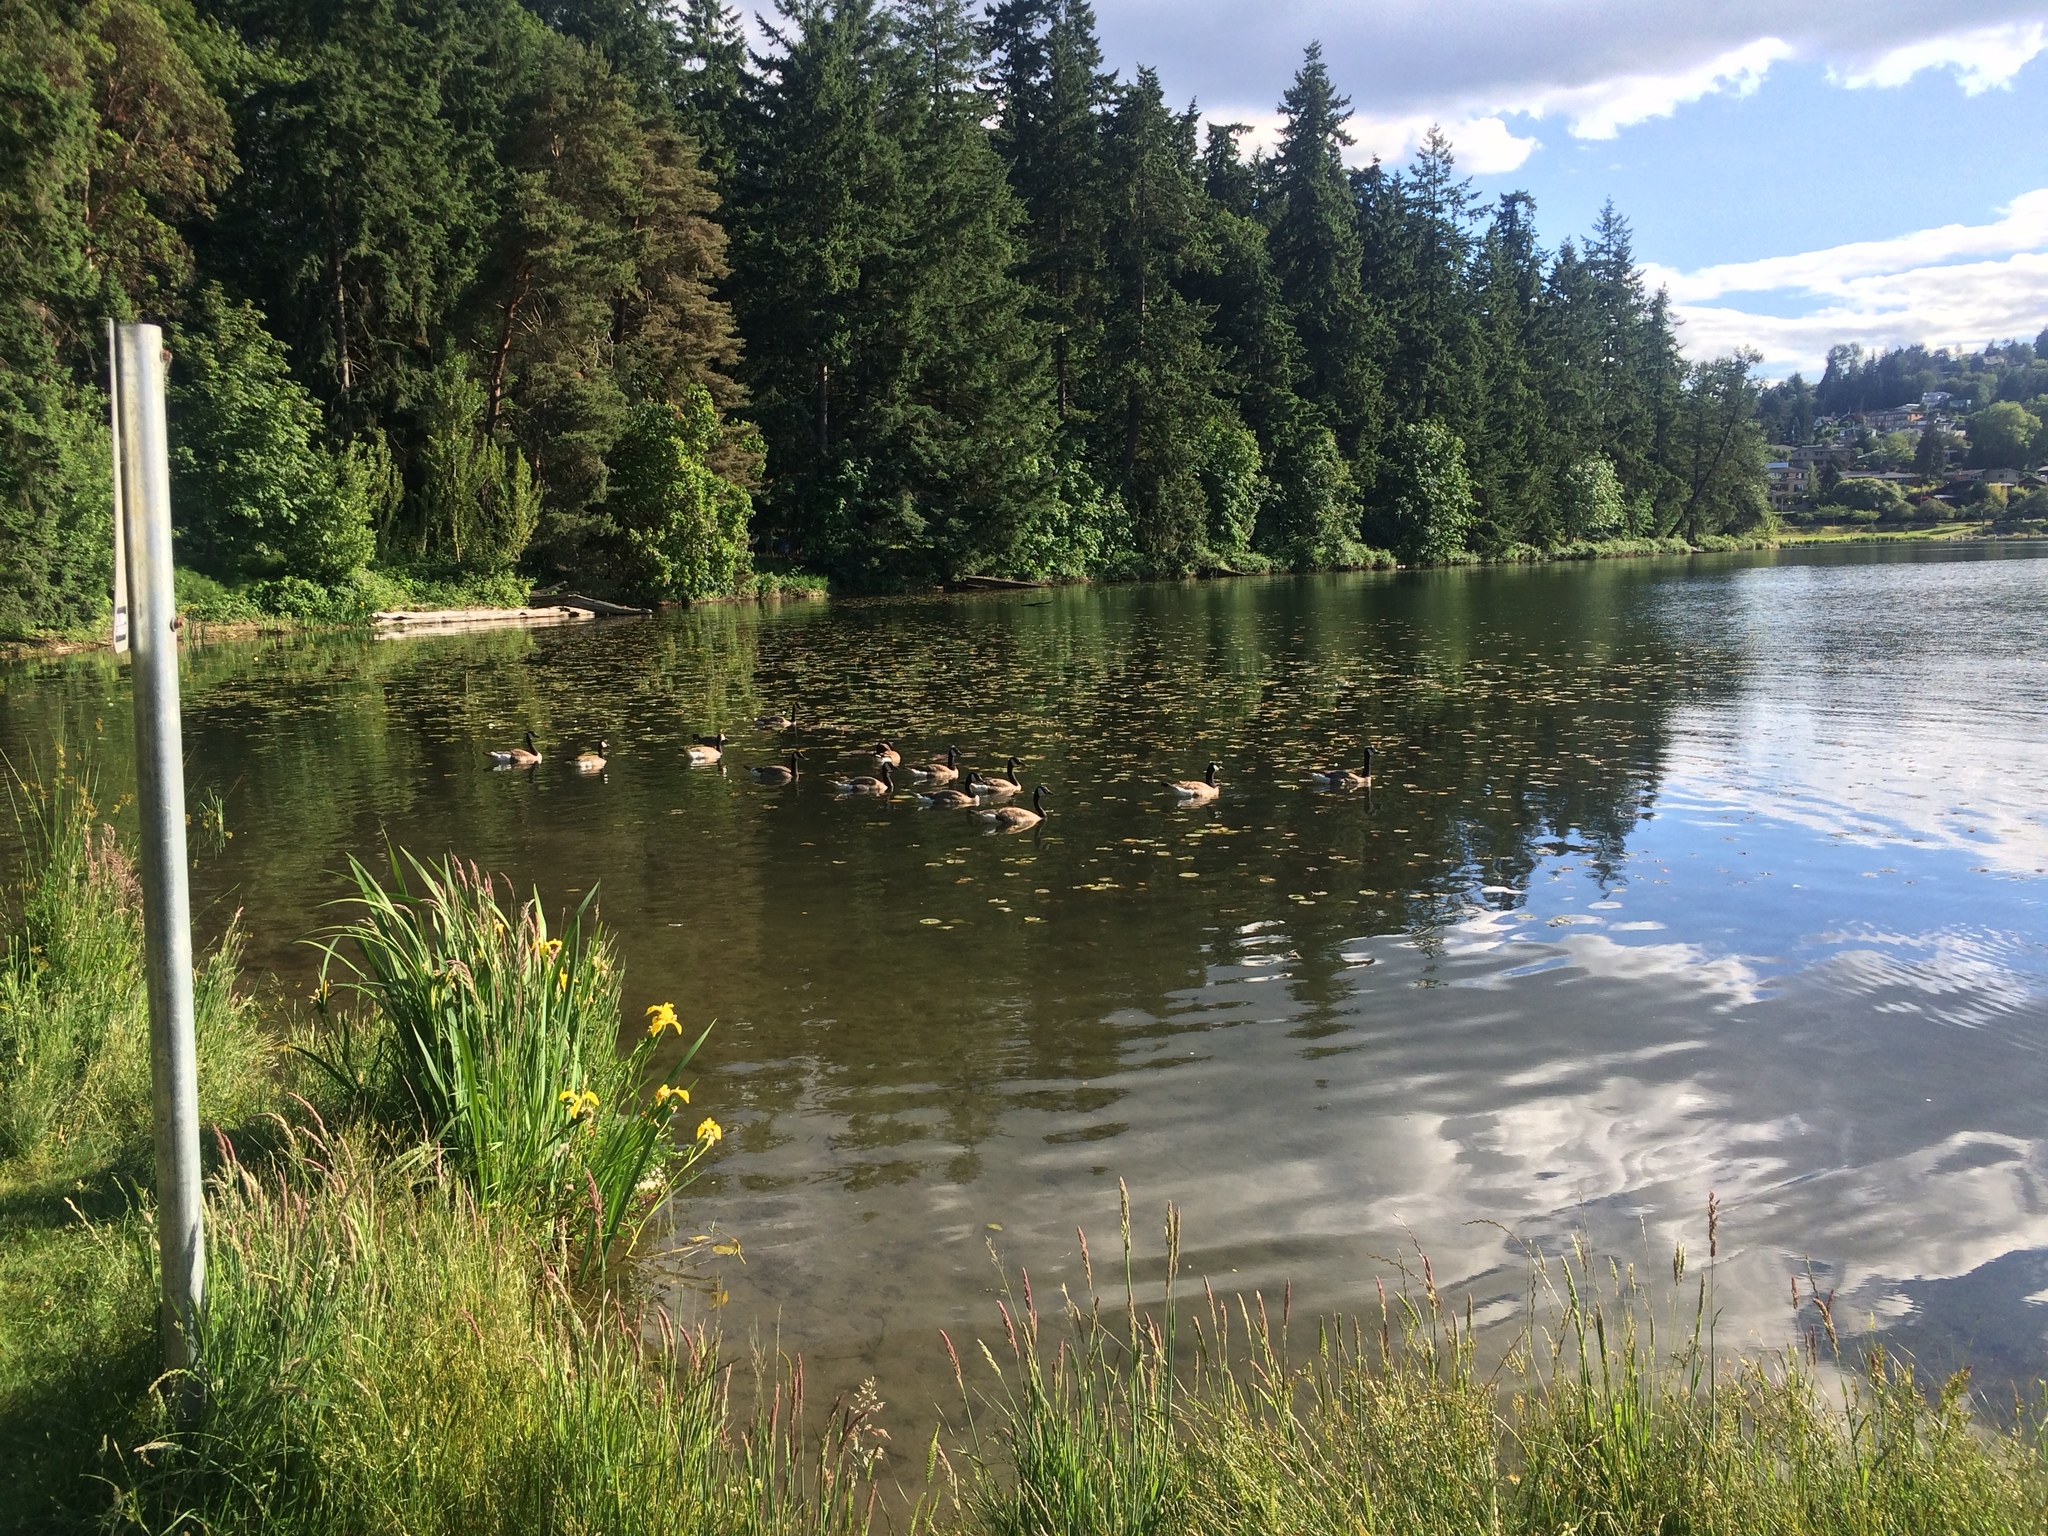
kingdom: Animalia
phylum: Chordata
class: Aves
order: Anseriformes
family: Anatidae
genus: Branta
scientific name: Branta canadensis
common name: Canada goose
